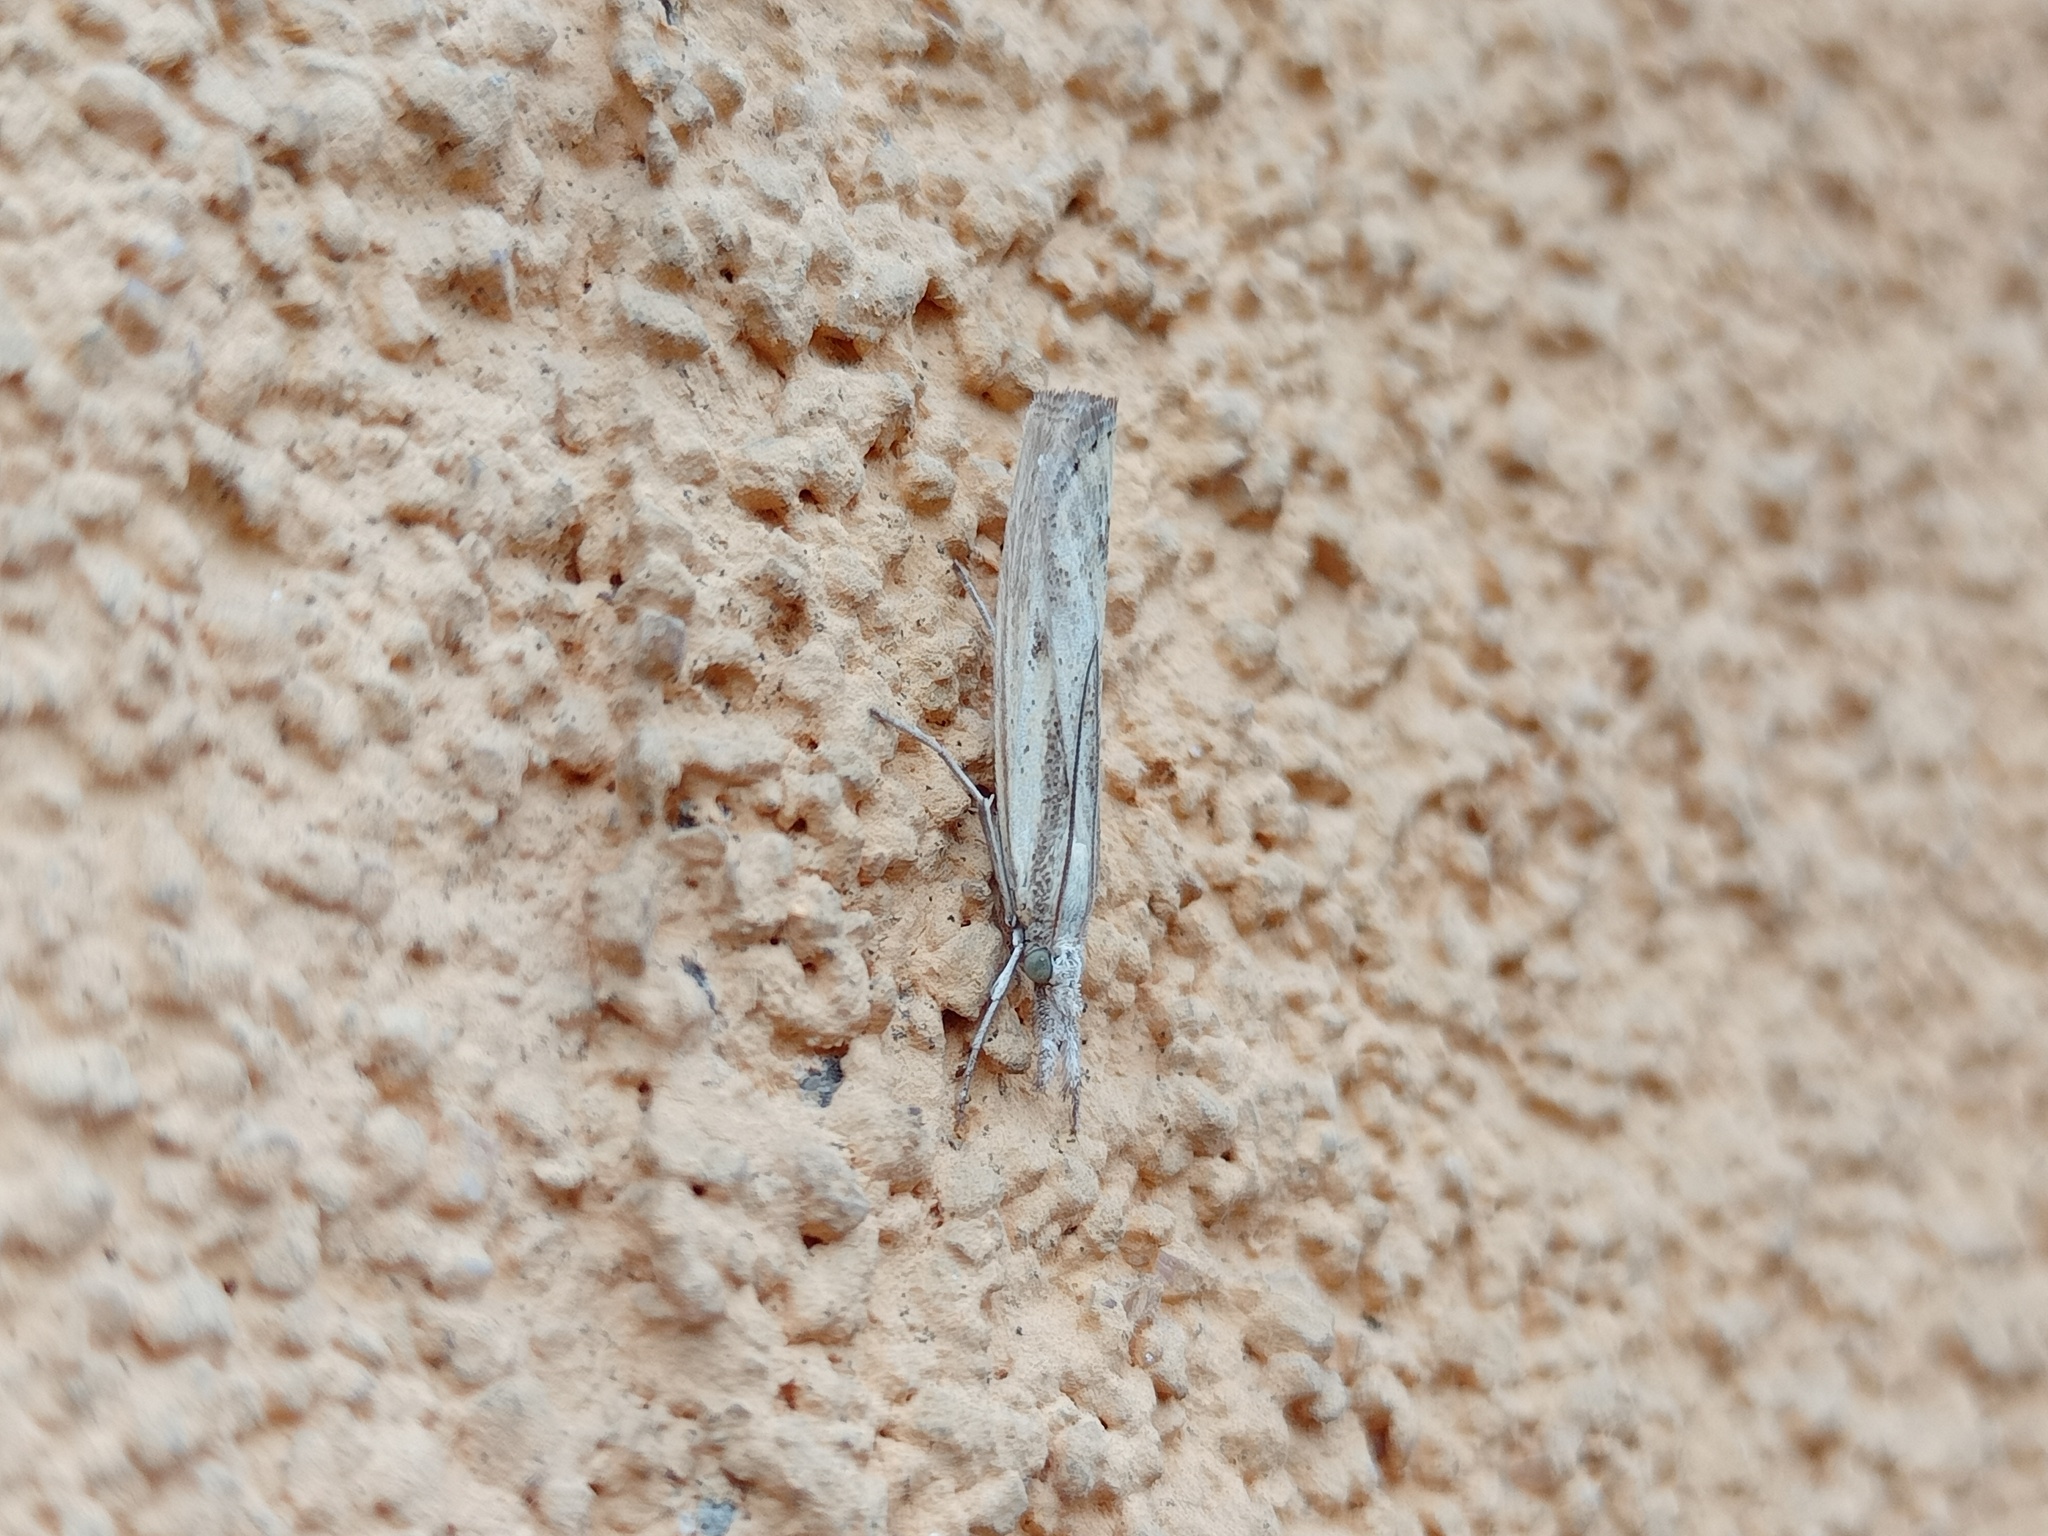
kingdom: Animalia
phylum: Arthropoda
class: Insecta
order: Lepidoptera
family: Crambidae
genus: Agriphila
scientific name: Agriphila inquinatella
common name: Barred grass-veneer
